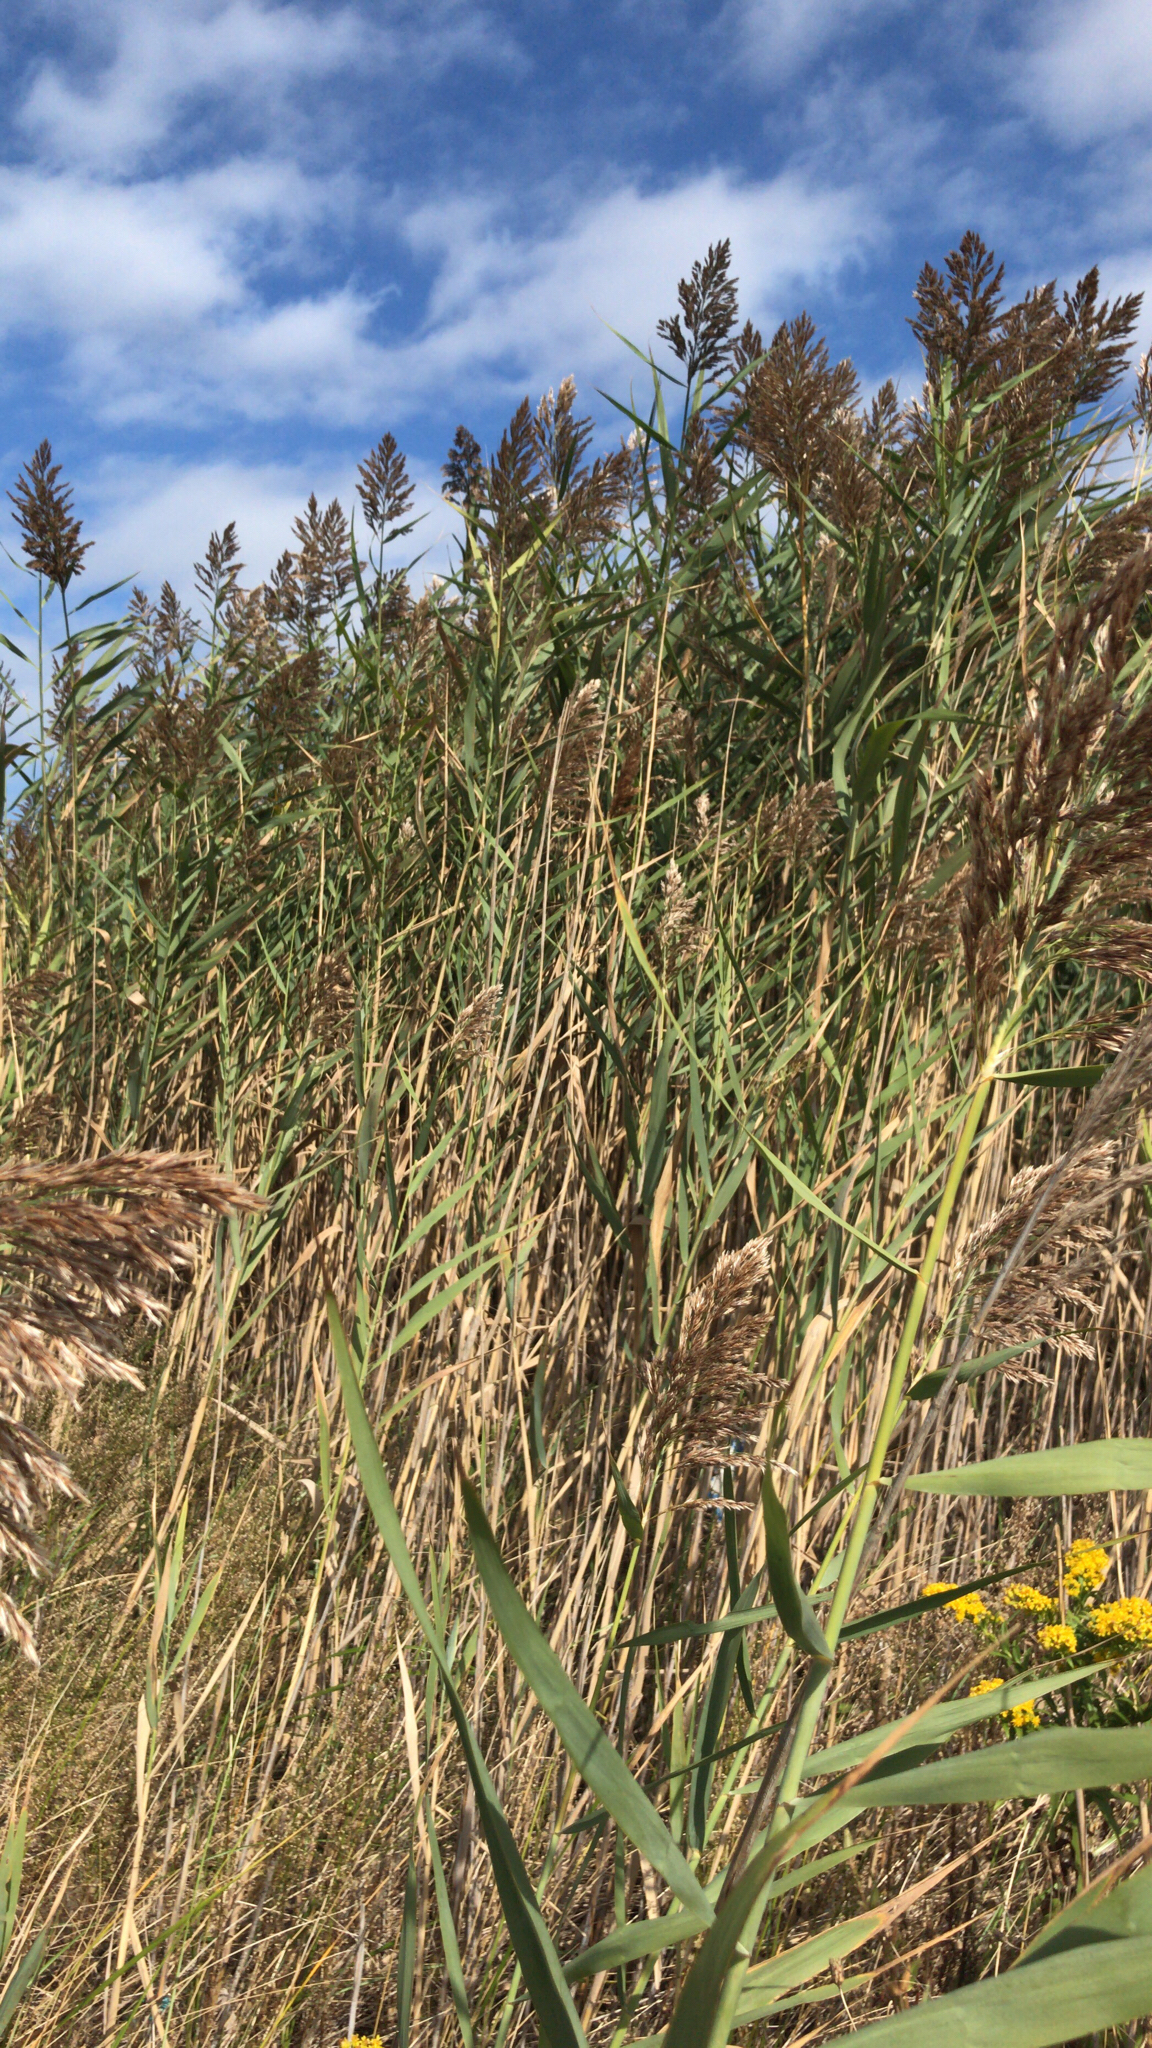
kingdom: Plantae
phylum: Tracheophyta
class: Liliopsida
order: Poales
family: Poaceae
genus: Phragmites
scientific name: Phragmites australis
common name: Common reed
